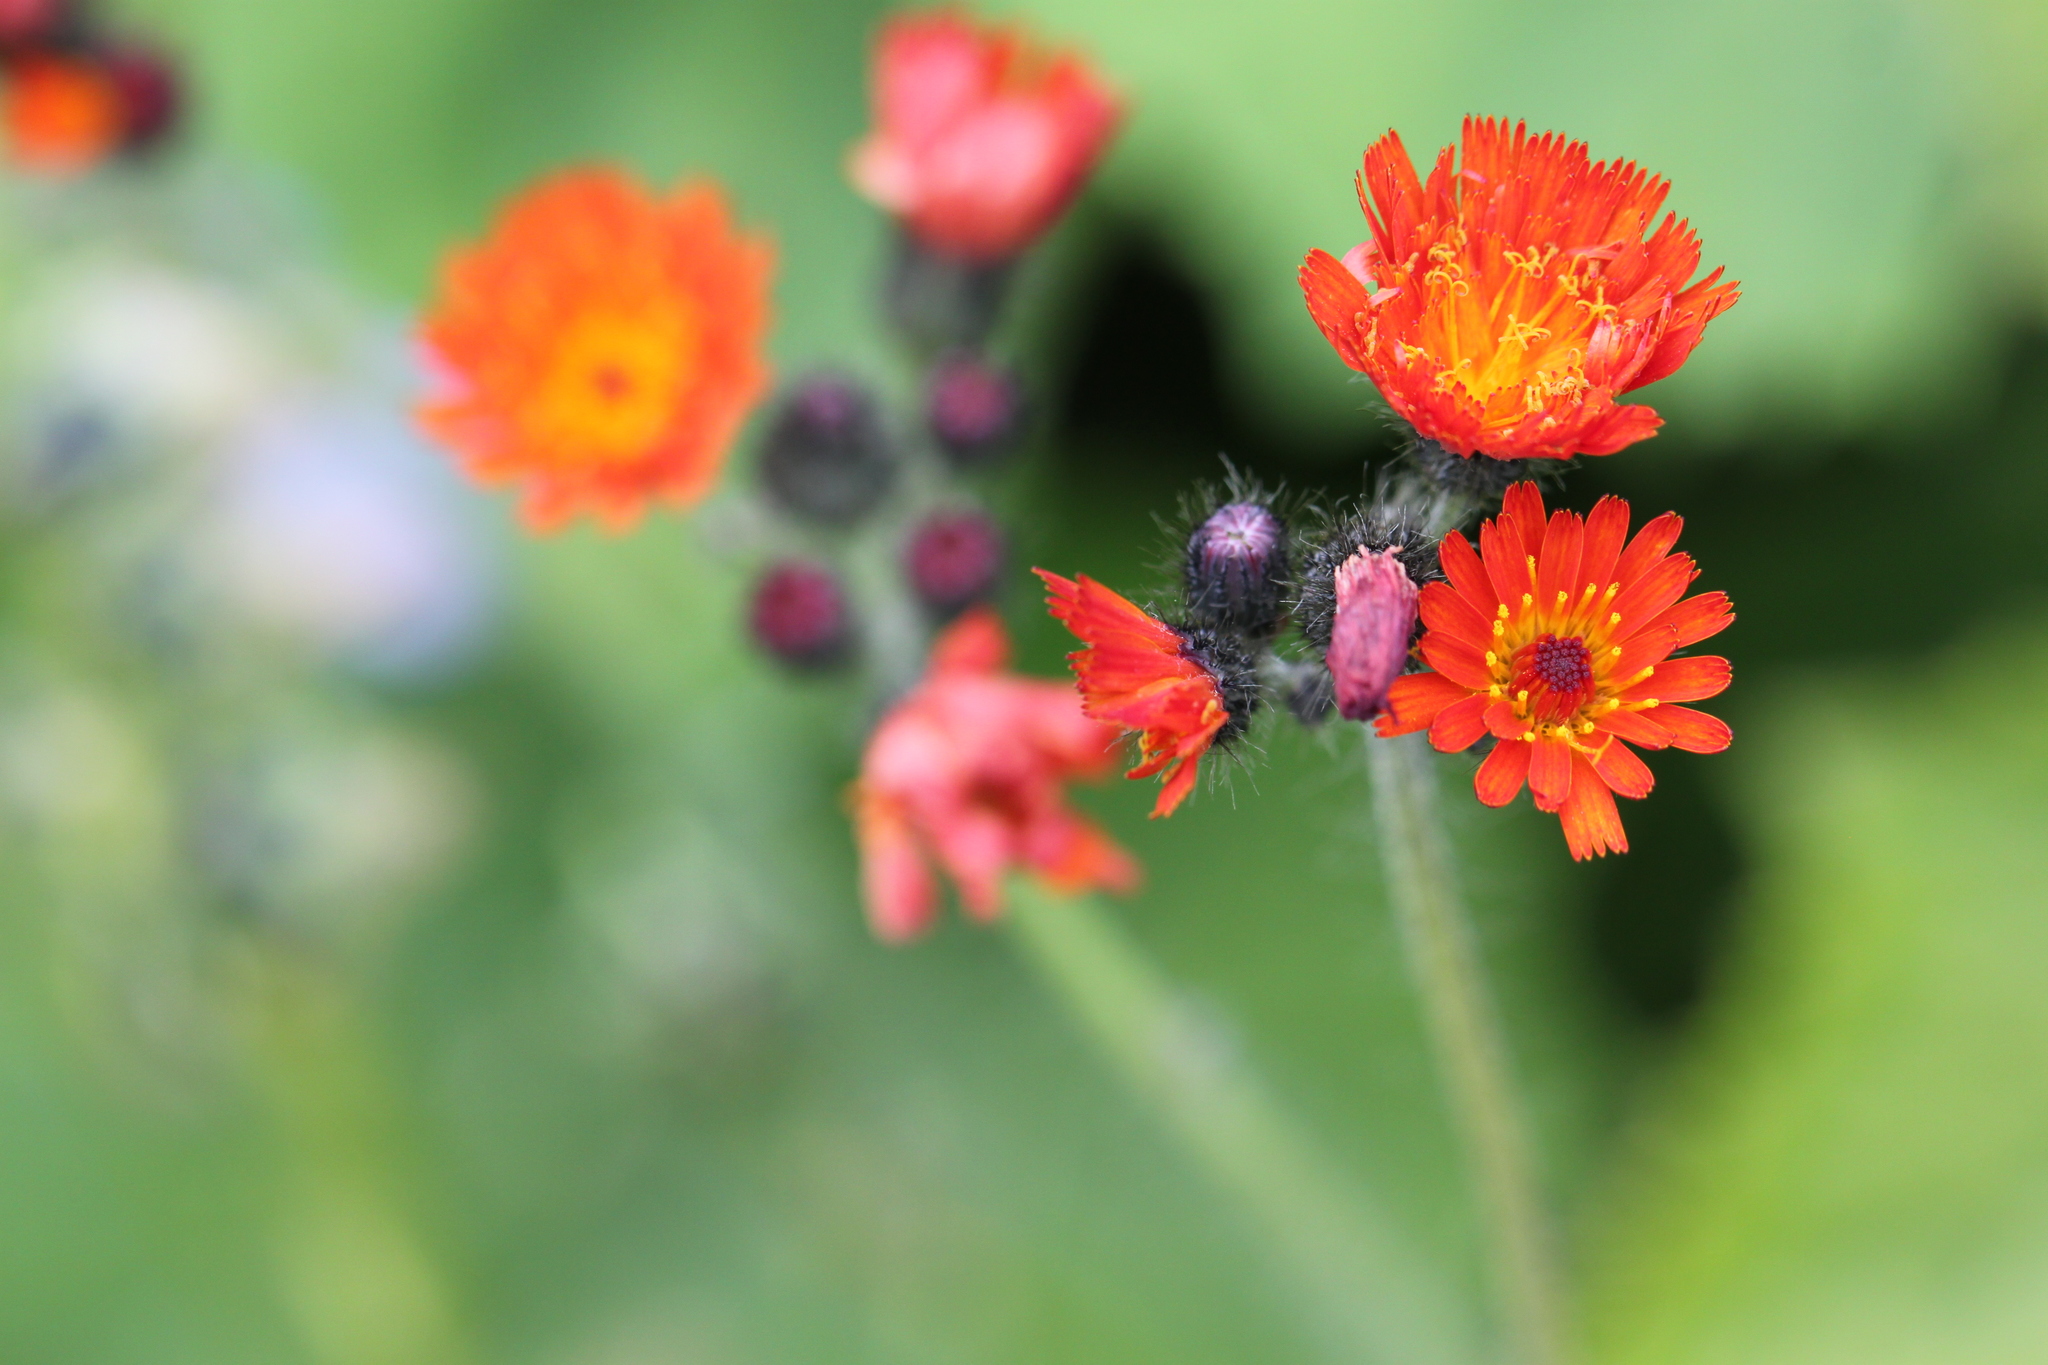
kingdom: Plantae
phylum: Tracheophyta
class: Magnoliopsida
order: Asterales
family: Asteraceae
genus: Pilosella
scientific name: Pilosella aurantiaca
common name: Fox-and-cubs
